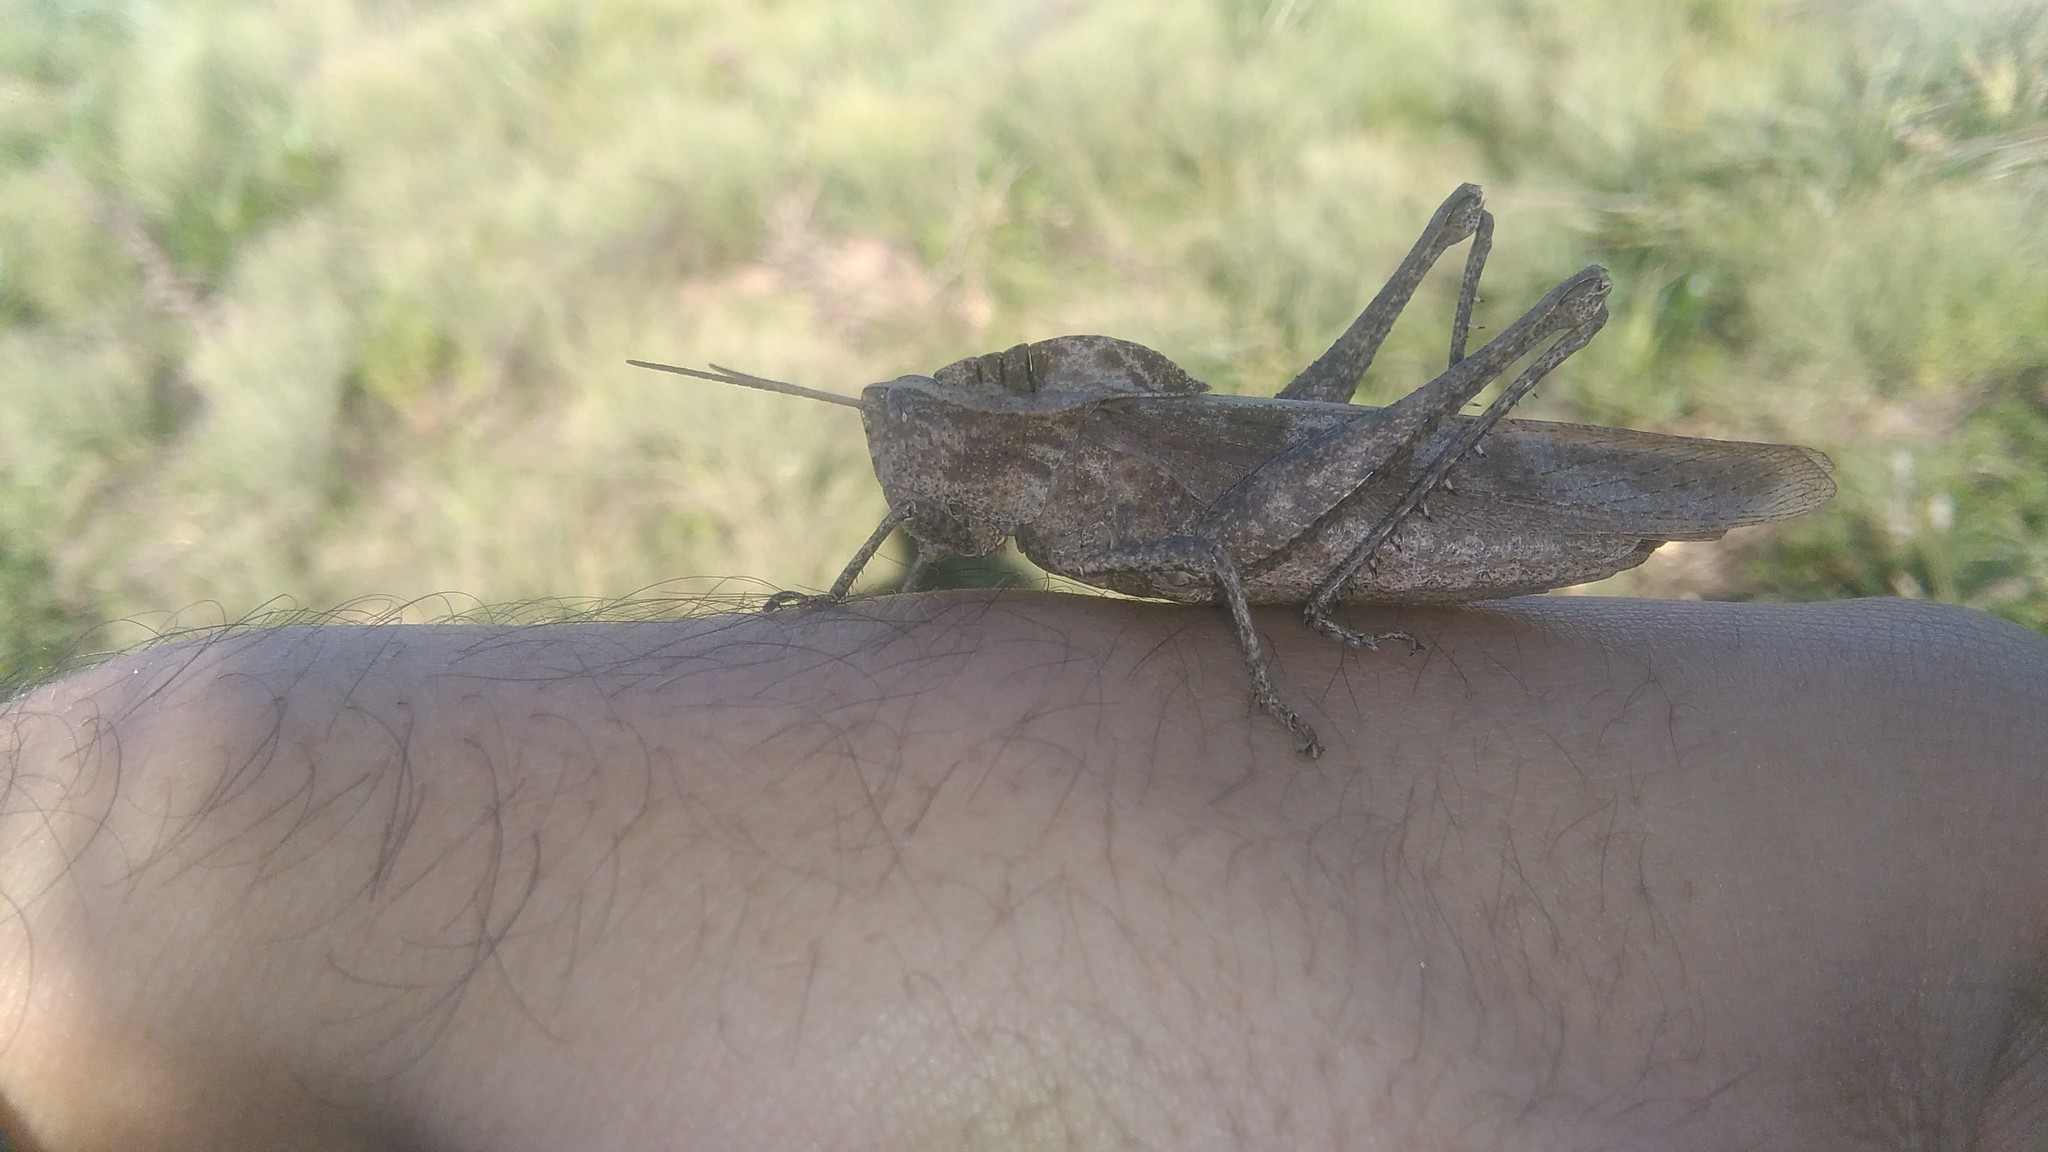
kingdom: Animalia
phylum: Arthropoda
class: Insecta
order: Orthoptera
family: Romaleidae
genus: Xyleus
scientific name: Xyleus discoideus
